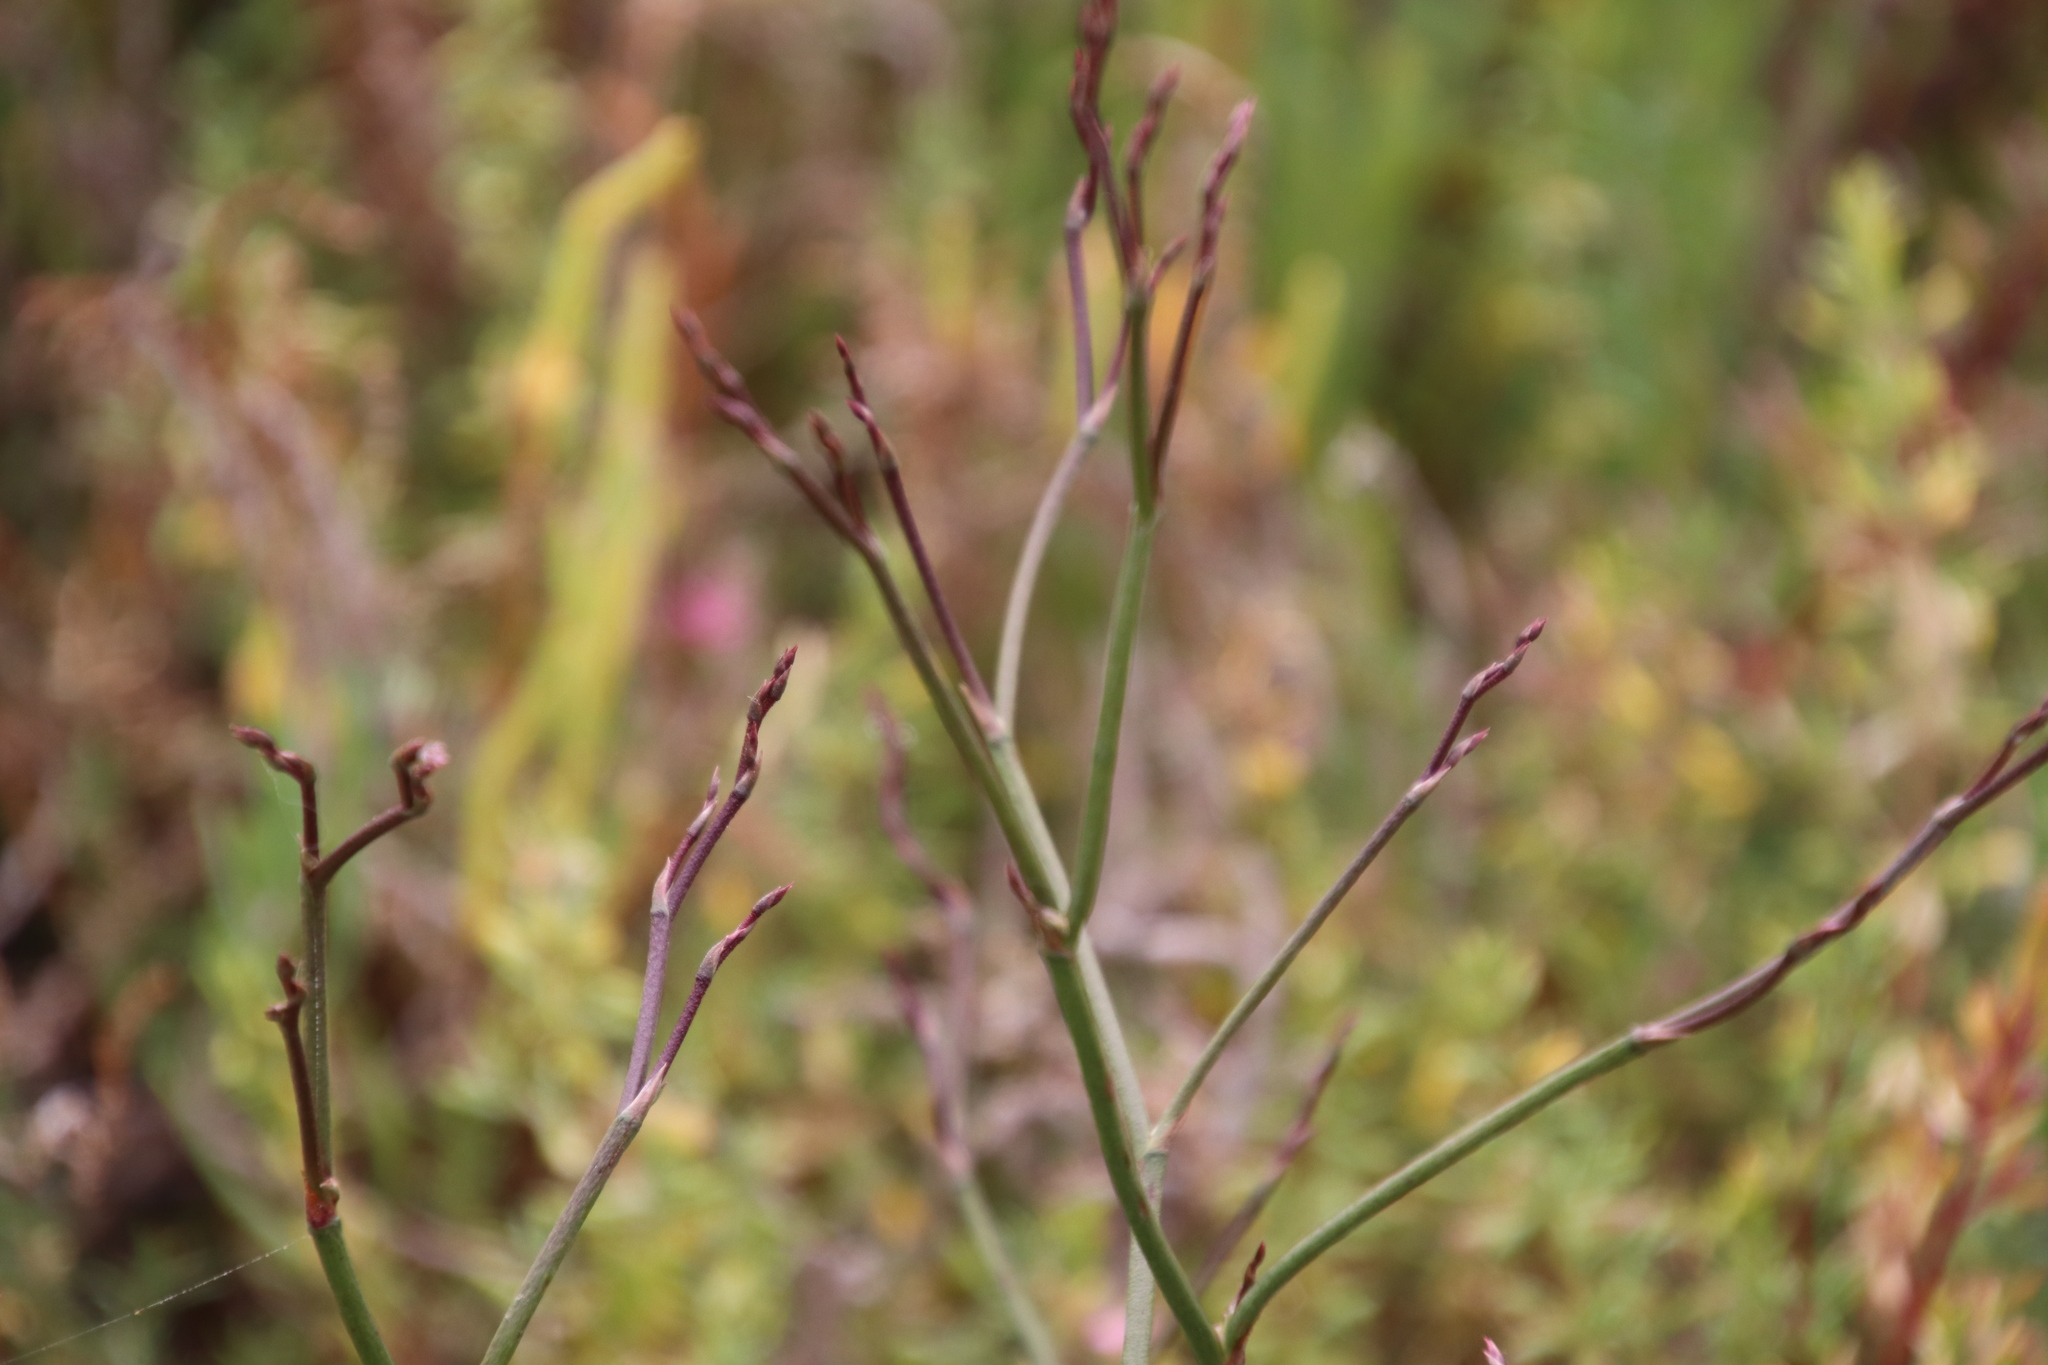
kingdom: Plantae
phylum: Tracheophyta
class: Magnoliopsida
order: Caryophyllales
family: Plumbaginaceae
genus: Limonium
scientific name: Limonium californicum
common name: Marsh-rosemary
